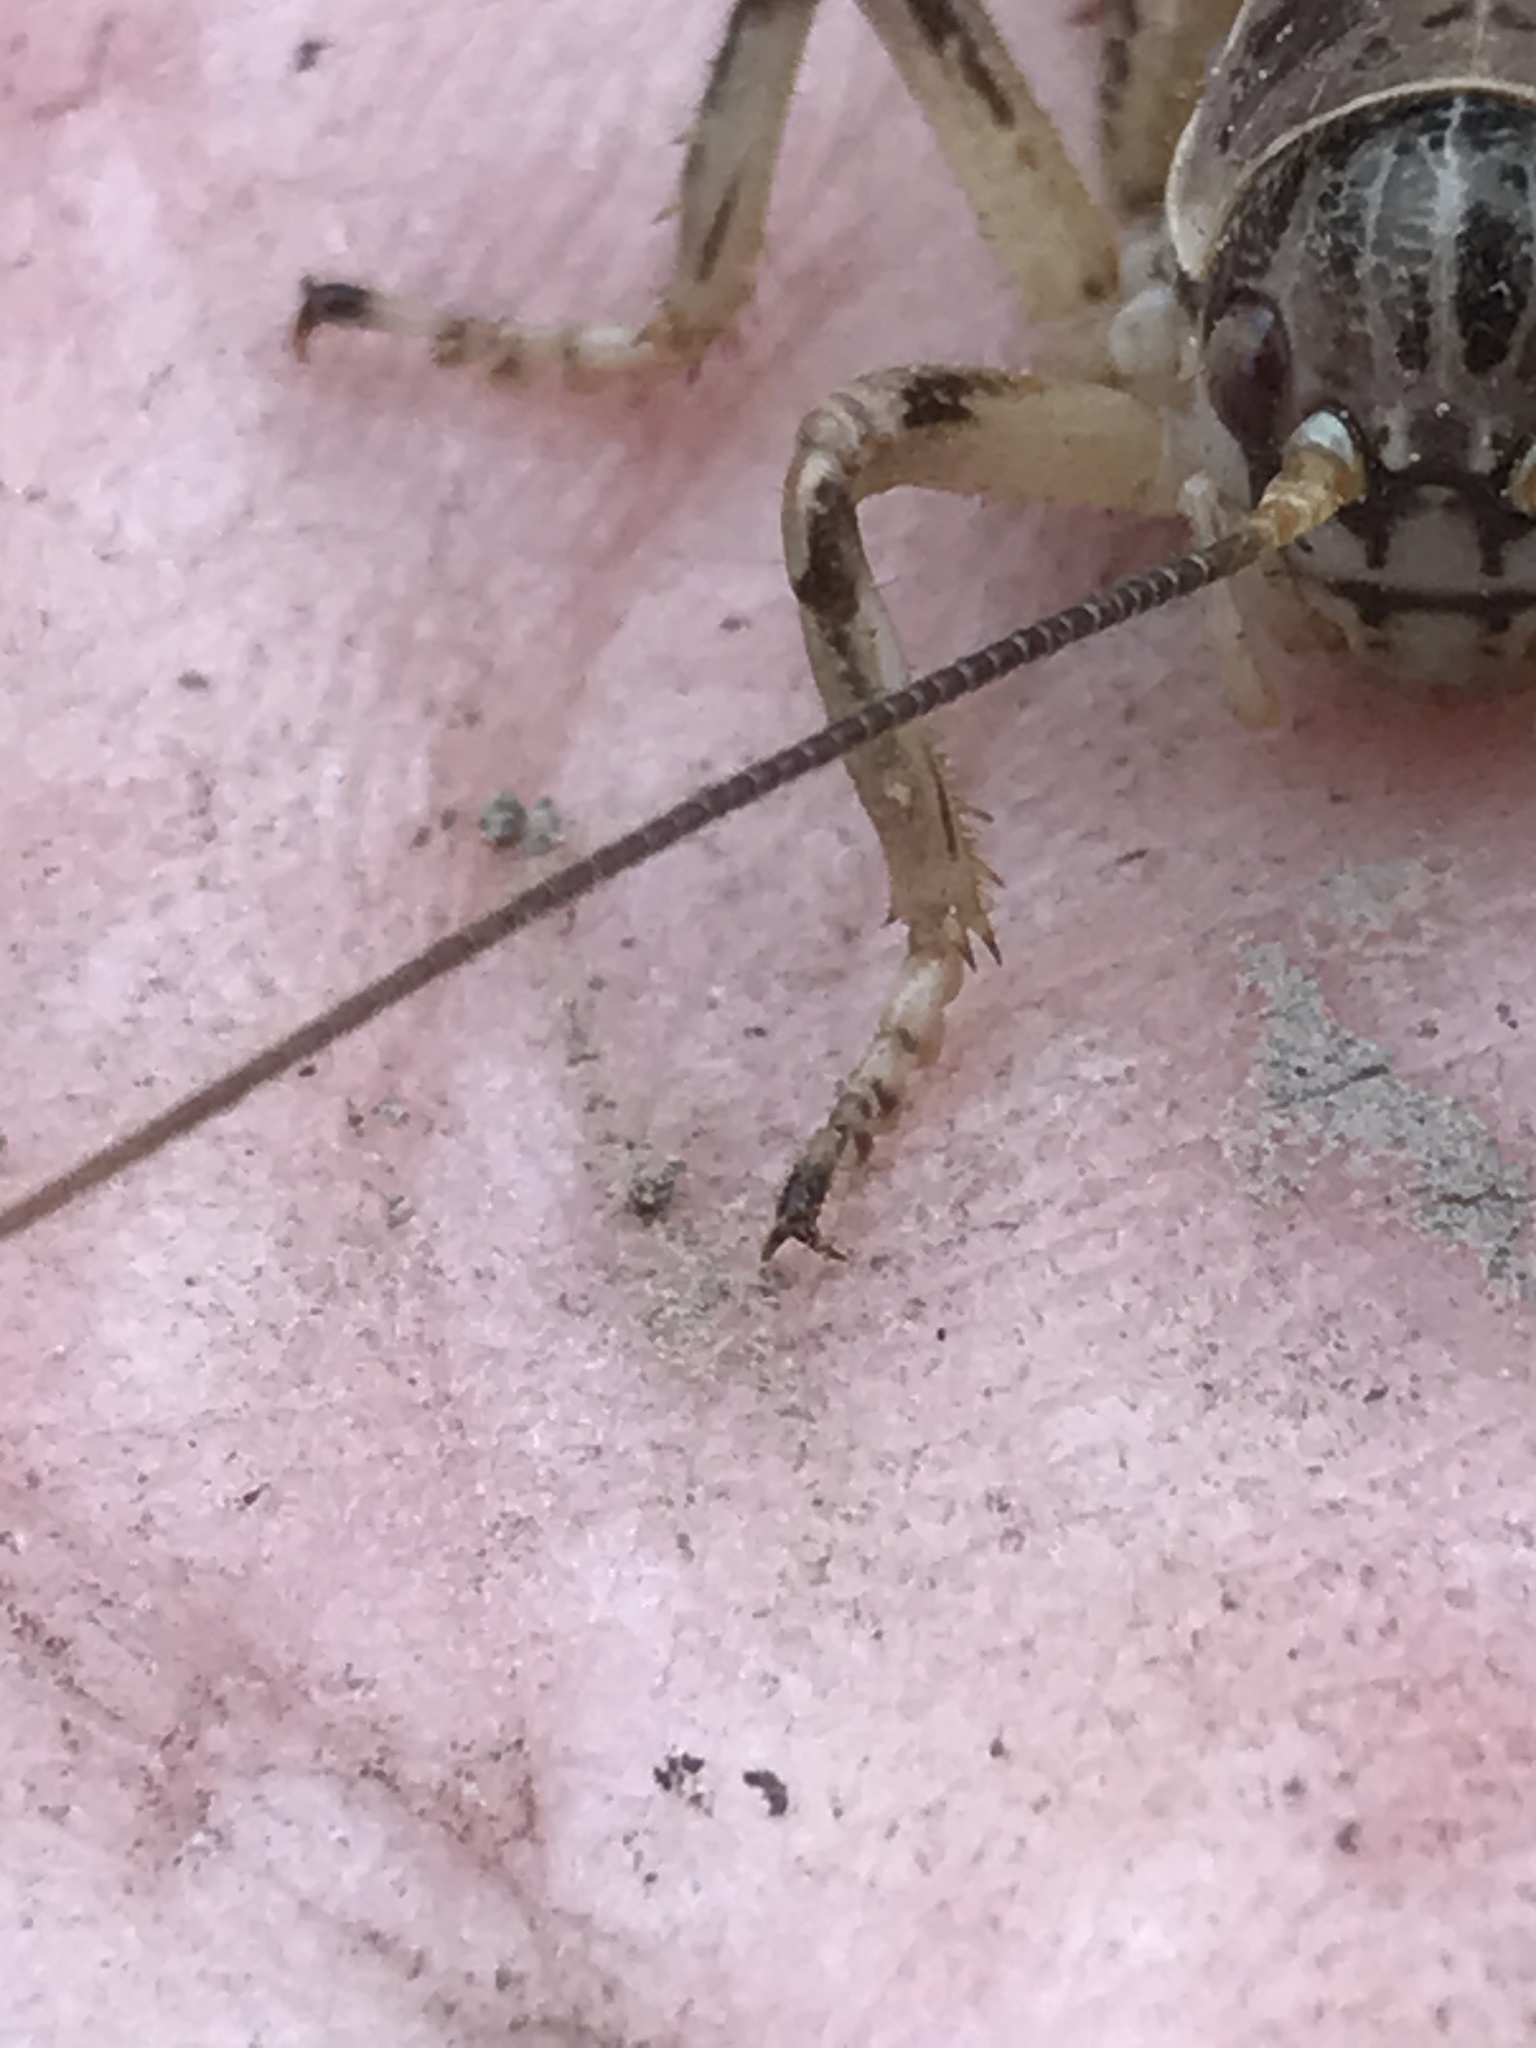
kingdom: Animalia
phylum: Arthropoda
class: Insecta
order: Orthoptera
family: Prophalangopsidae
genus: Cyphoderris
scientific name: Cyphoderris monstrosa
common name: Great grig
